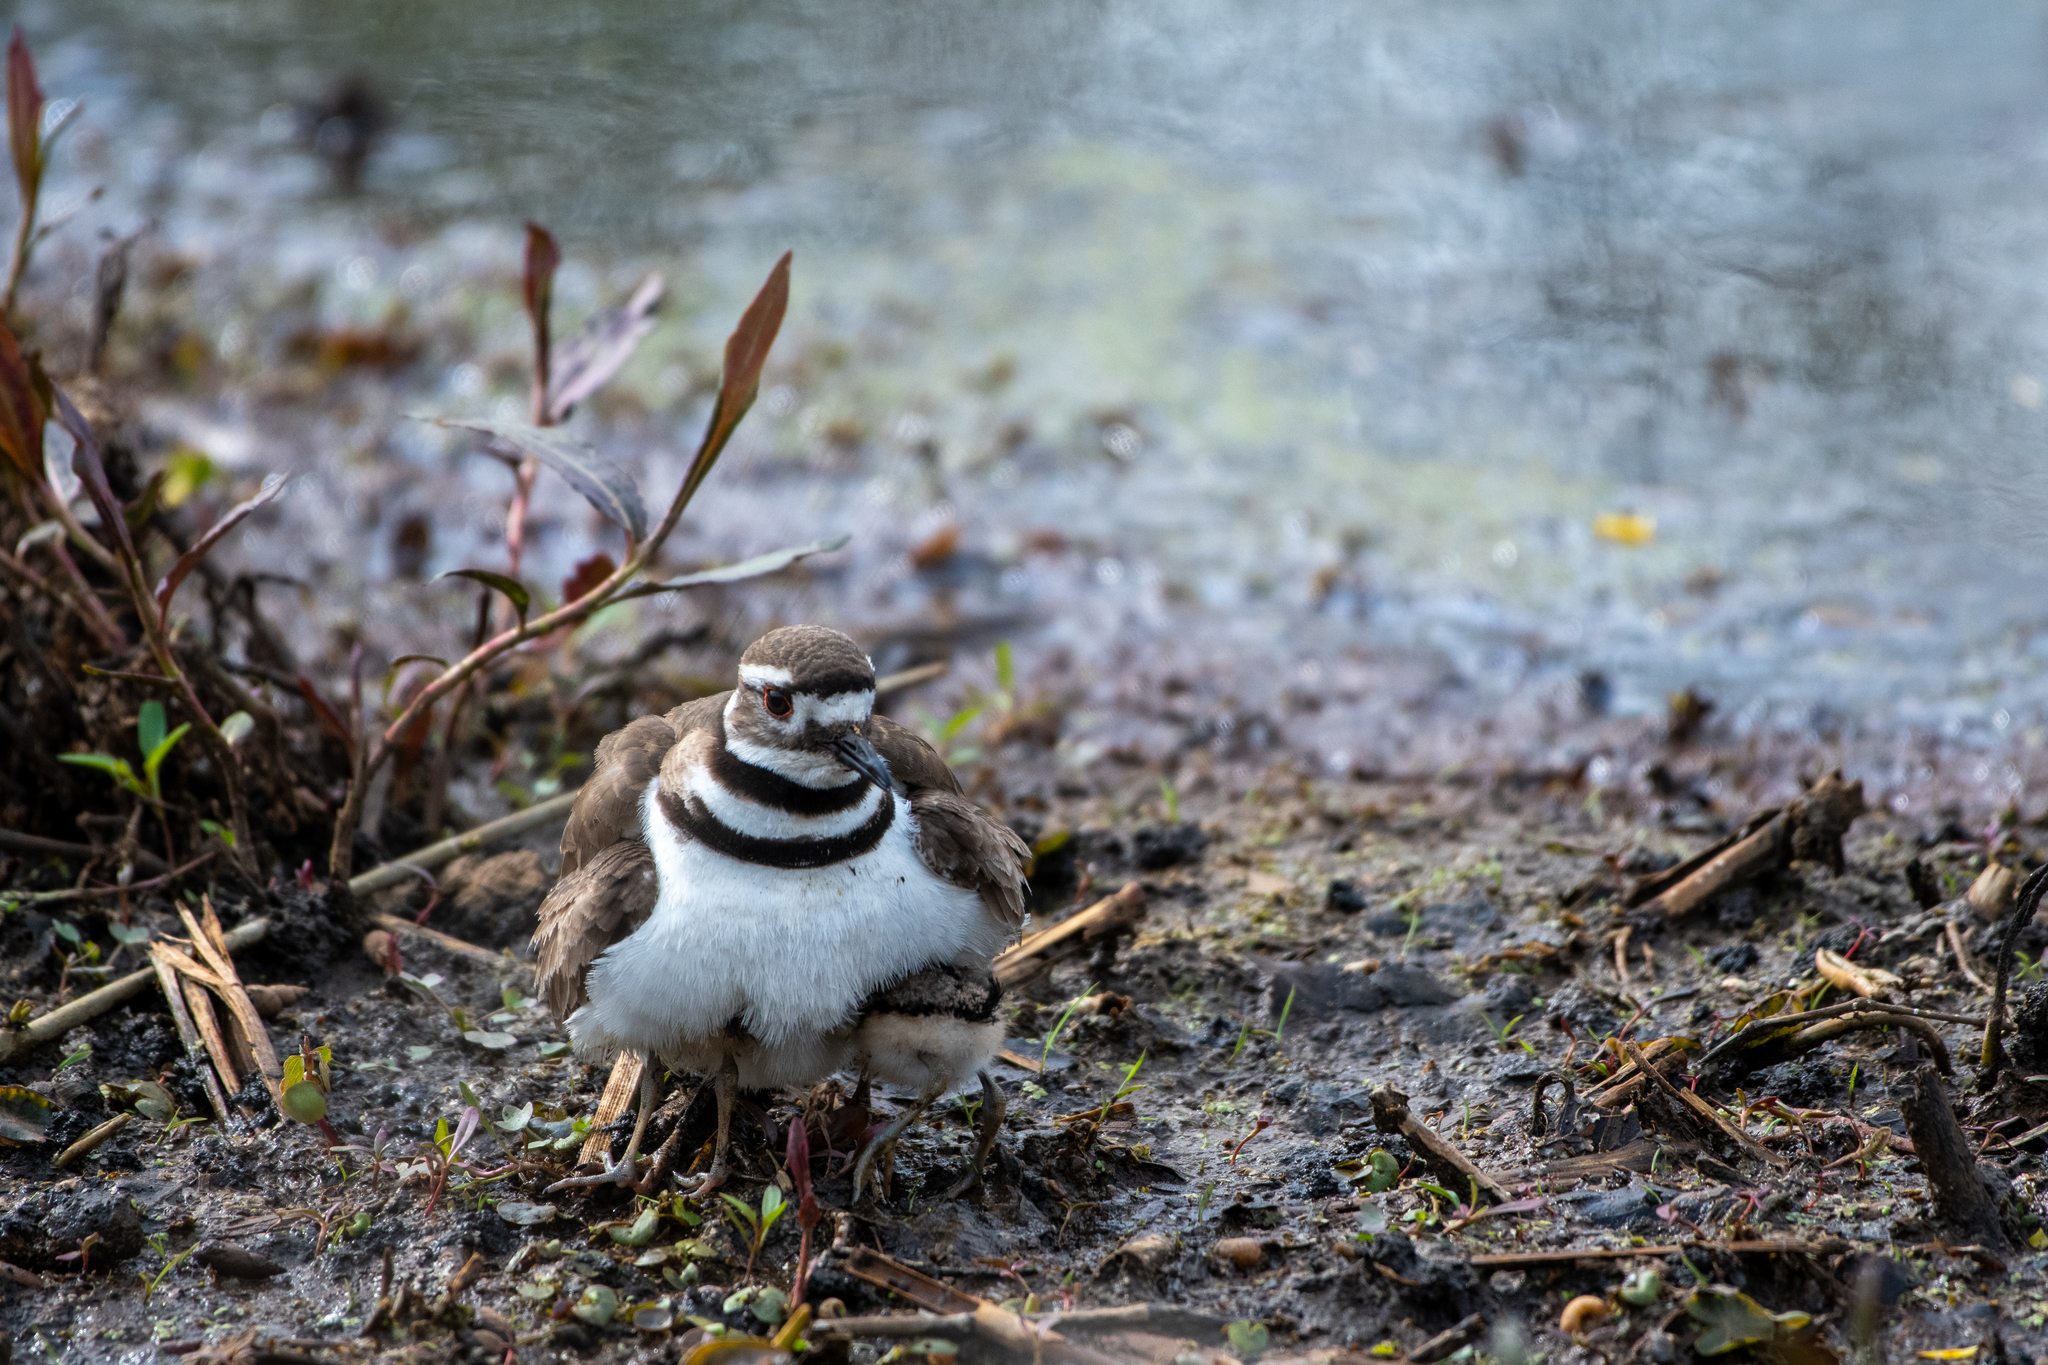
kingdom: Animalia
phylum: Chordata
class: Aves
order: Charadriiformes
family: Charadriidae
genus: Charadrius
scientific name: Charadrius vociferus
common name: Killdeer
